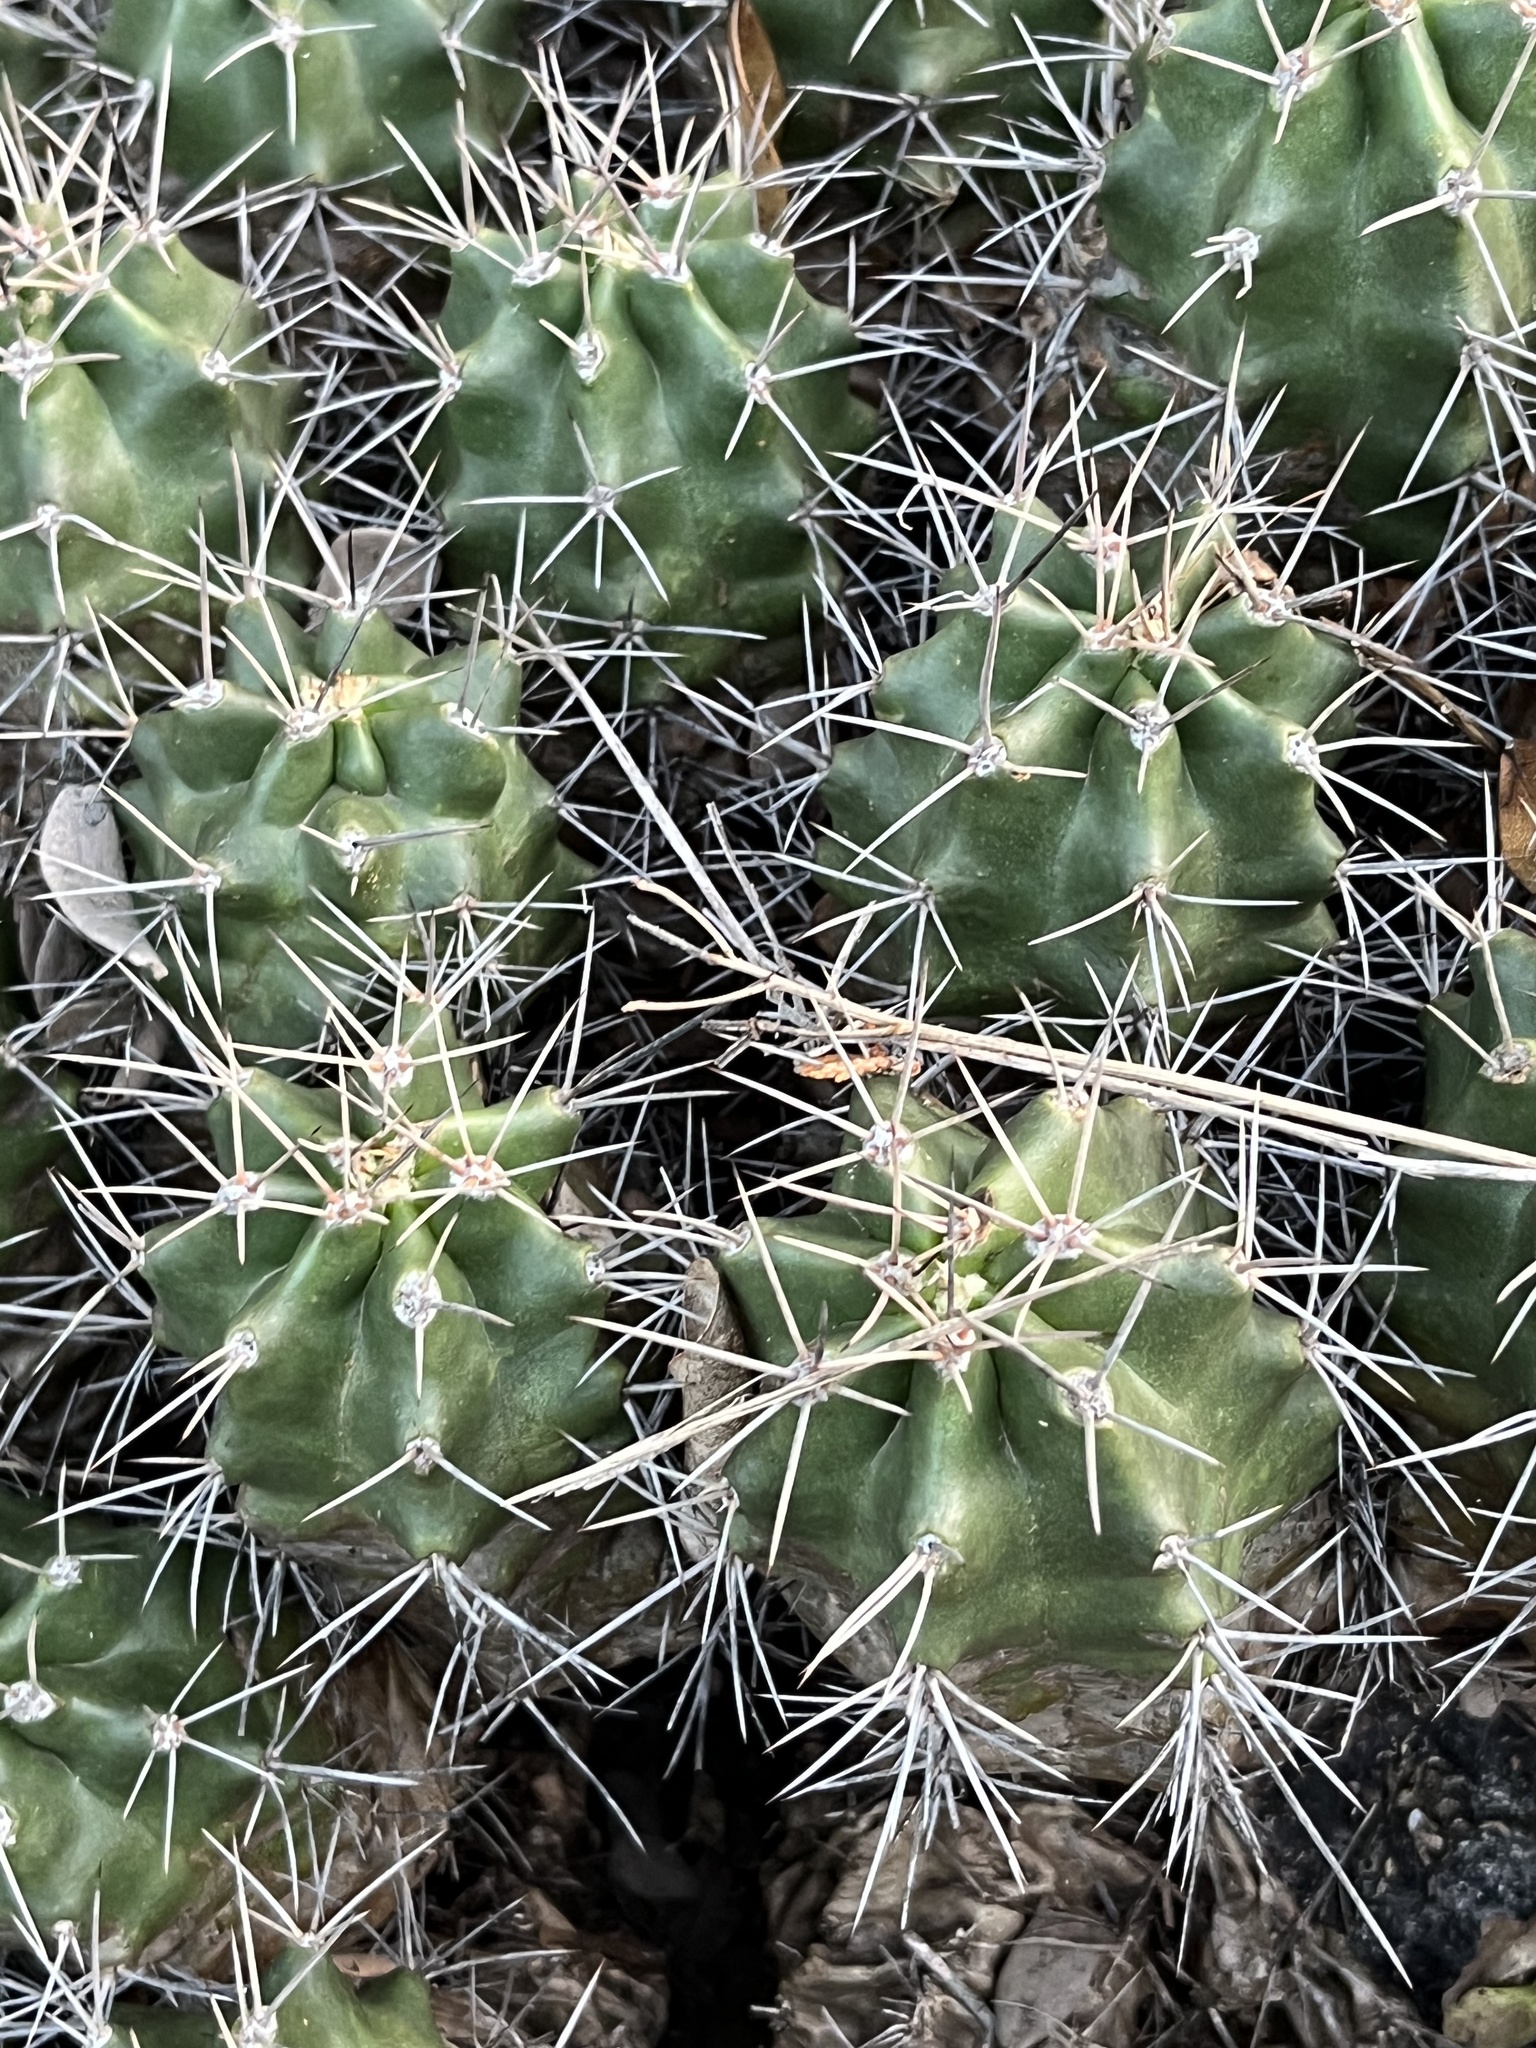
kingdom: Plantae
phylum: Tracheophyta
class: Magnoliopsida
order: Caryophyllales
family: Cactaceae
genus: Echinocereus
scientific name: Echinocereus coccineus
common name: Scarlet hedgehog cactus
